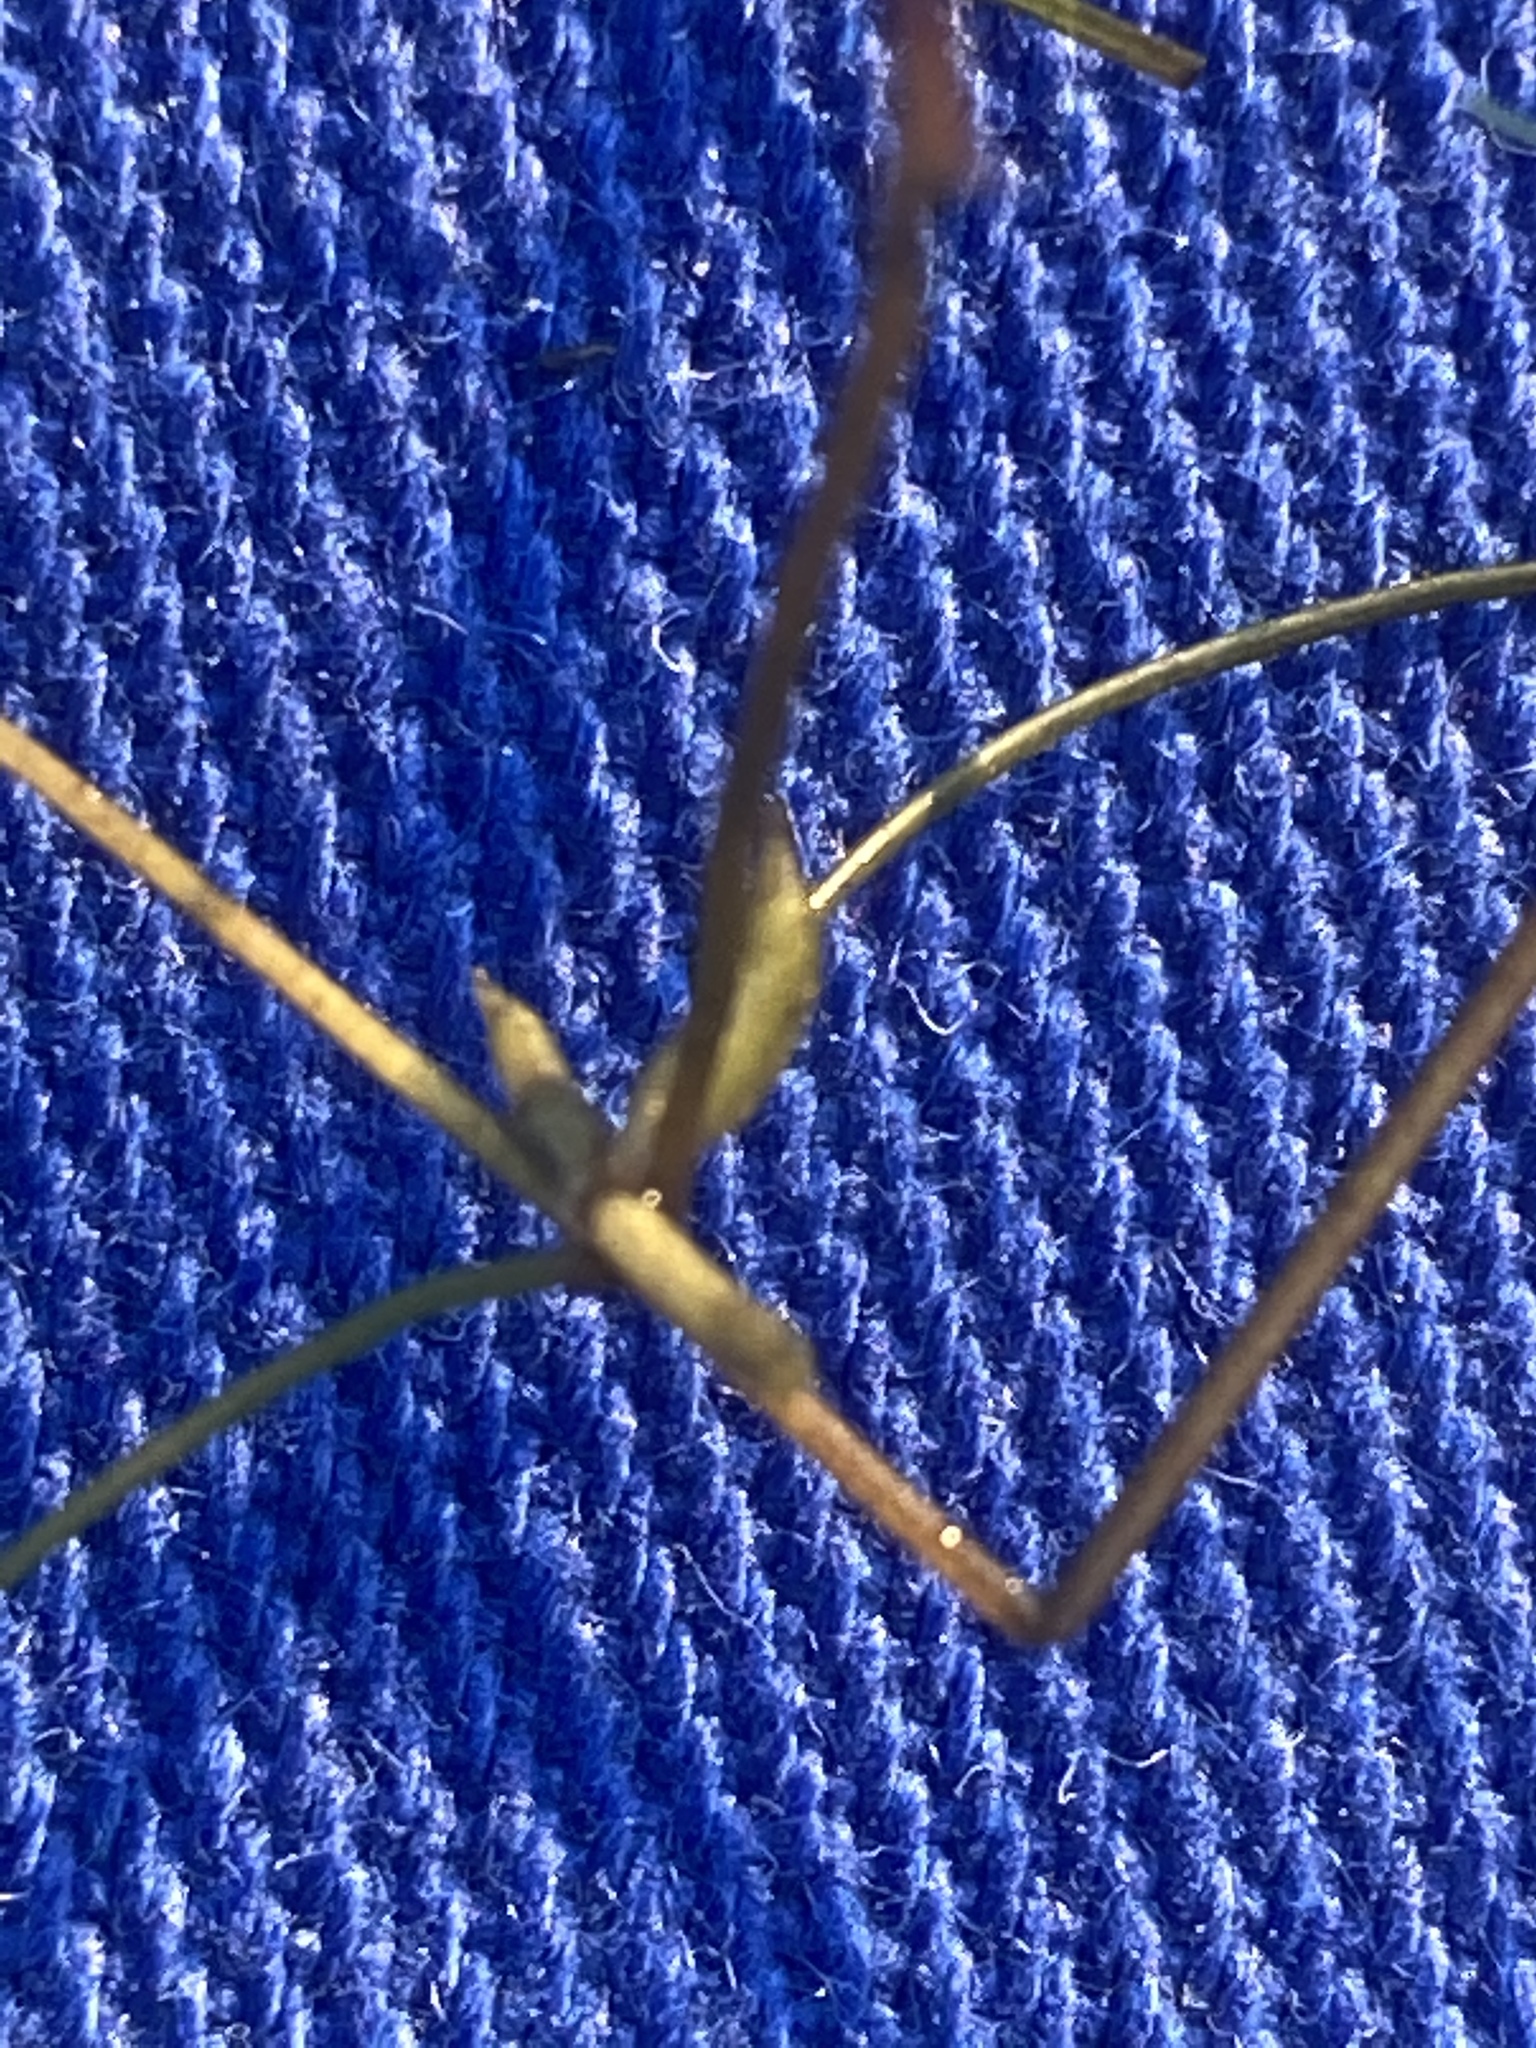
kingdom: Plantae
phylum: Tracheophyta
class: Liliopsida
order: Alismatales
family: Potamogetonaceae
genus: Zannichellia
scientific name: Zannichellia palustris
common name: Horned pondweed
